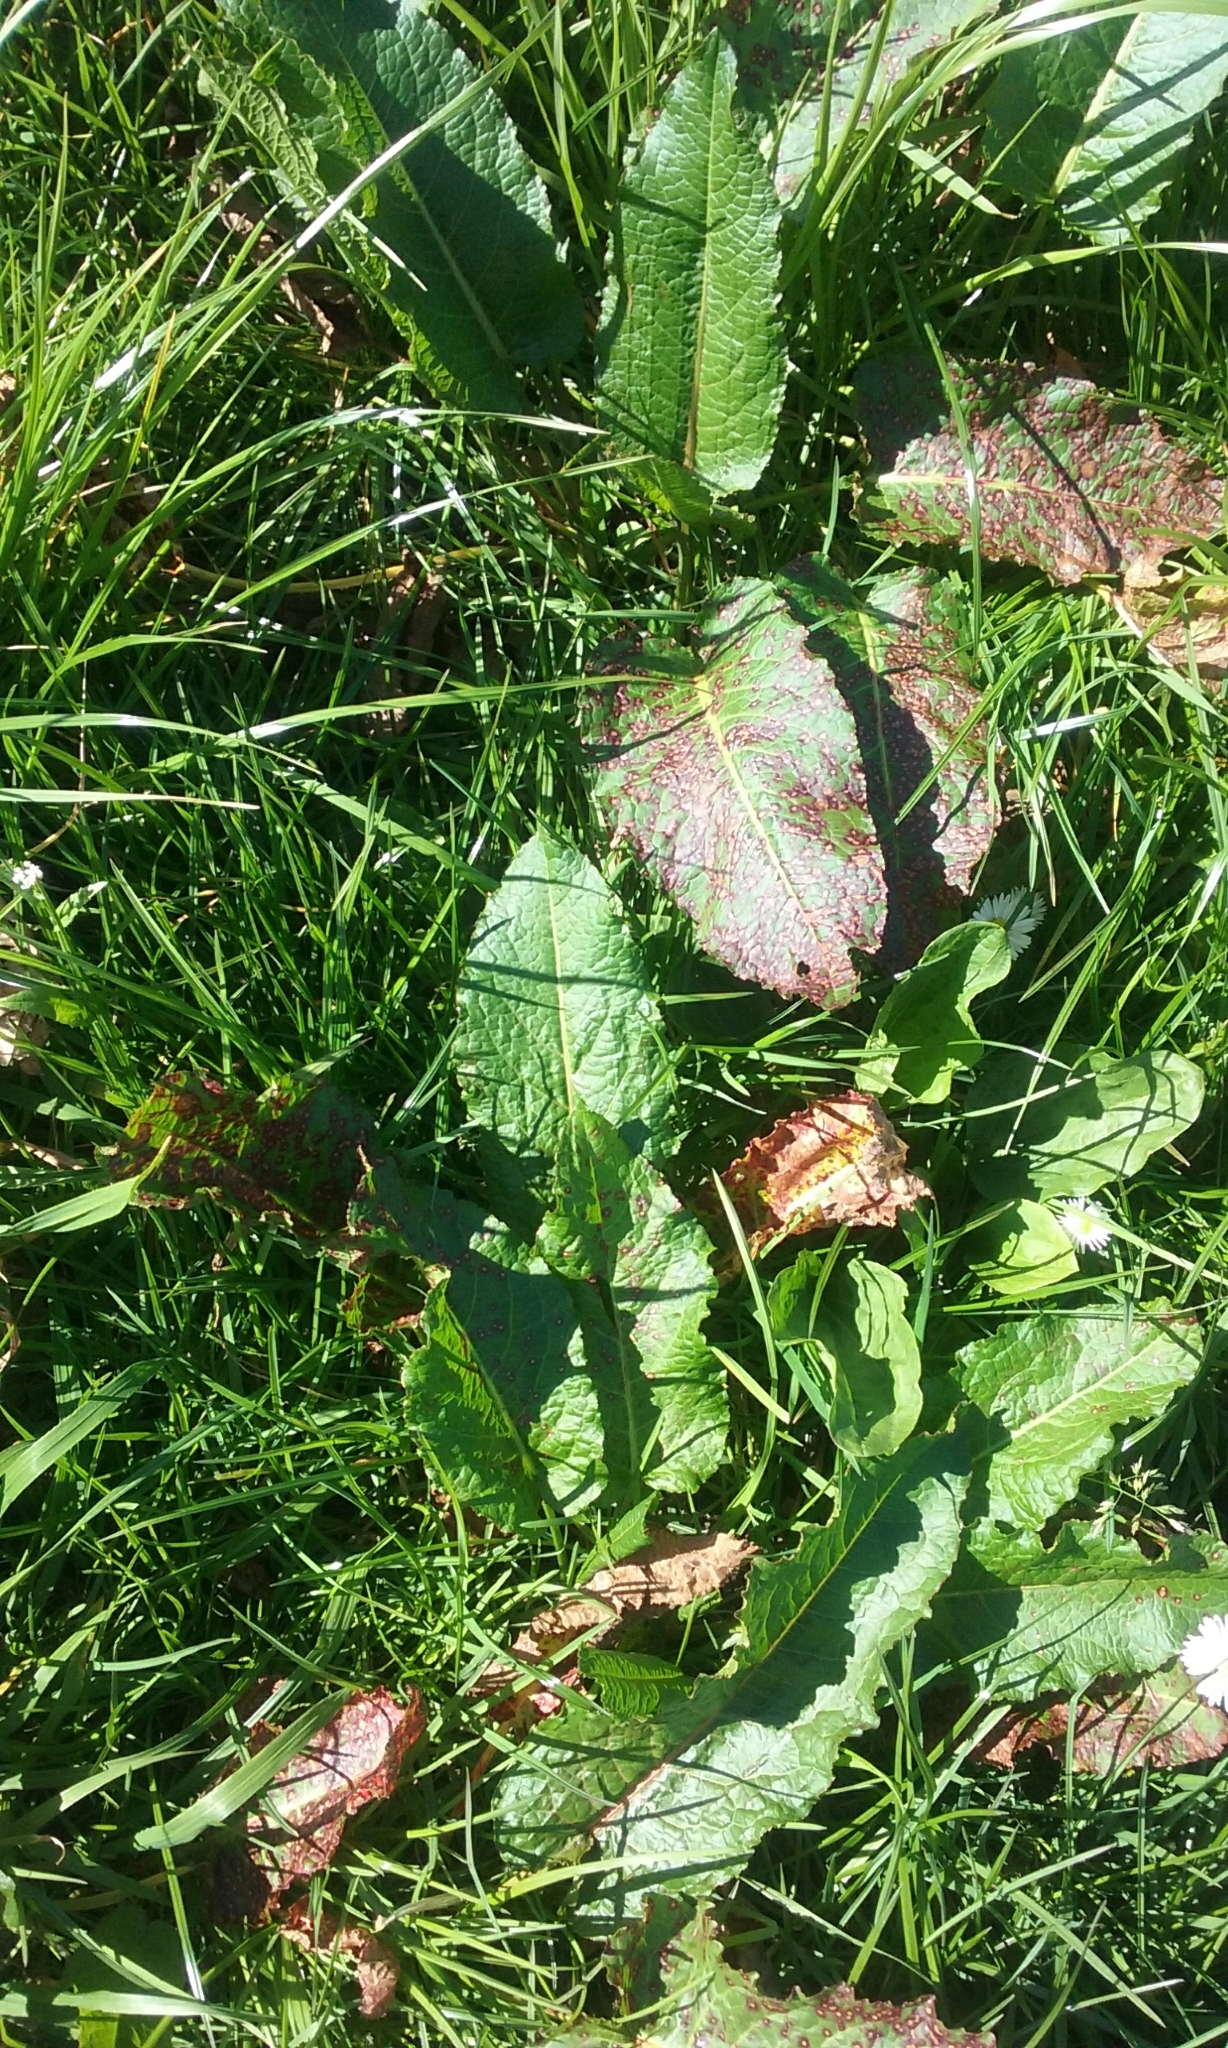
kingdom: Plantae
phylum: Tracheophyta
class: Magnoliopsida
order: Caryophyllales
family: Polygonaceae
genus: Rumex
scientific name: Rumex obtusifolius
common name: Bitter dock
